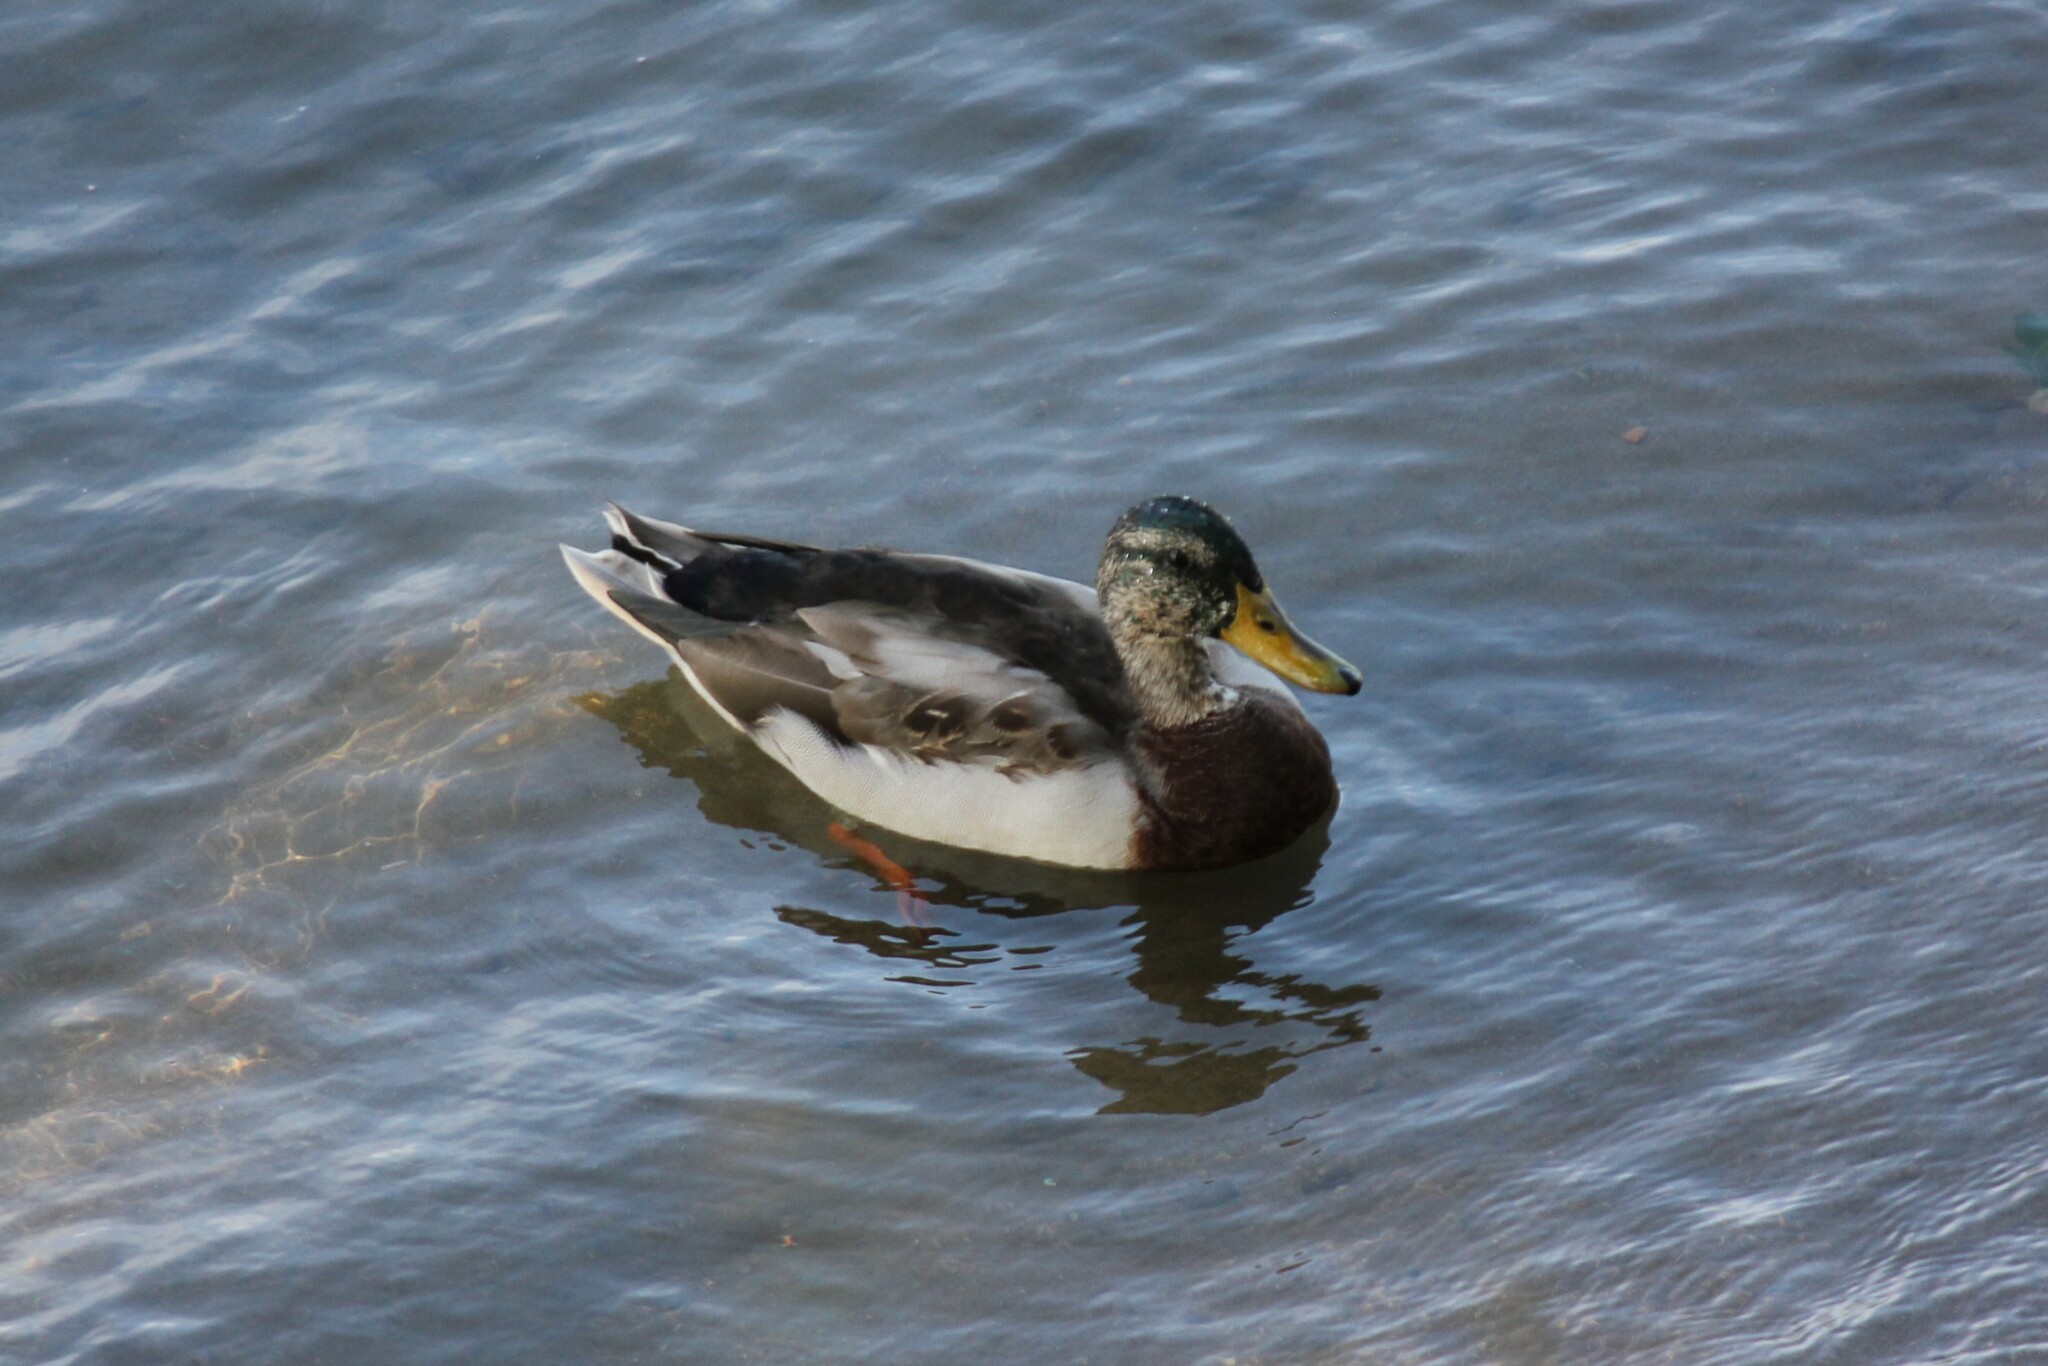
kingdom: Animalia
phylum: Chordata
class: Aves
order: Anseriformes
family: Anatidae
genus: Anas
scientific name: Anas platyrhynchos
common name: Mallard
